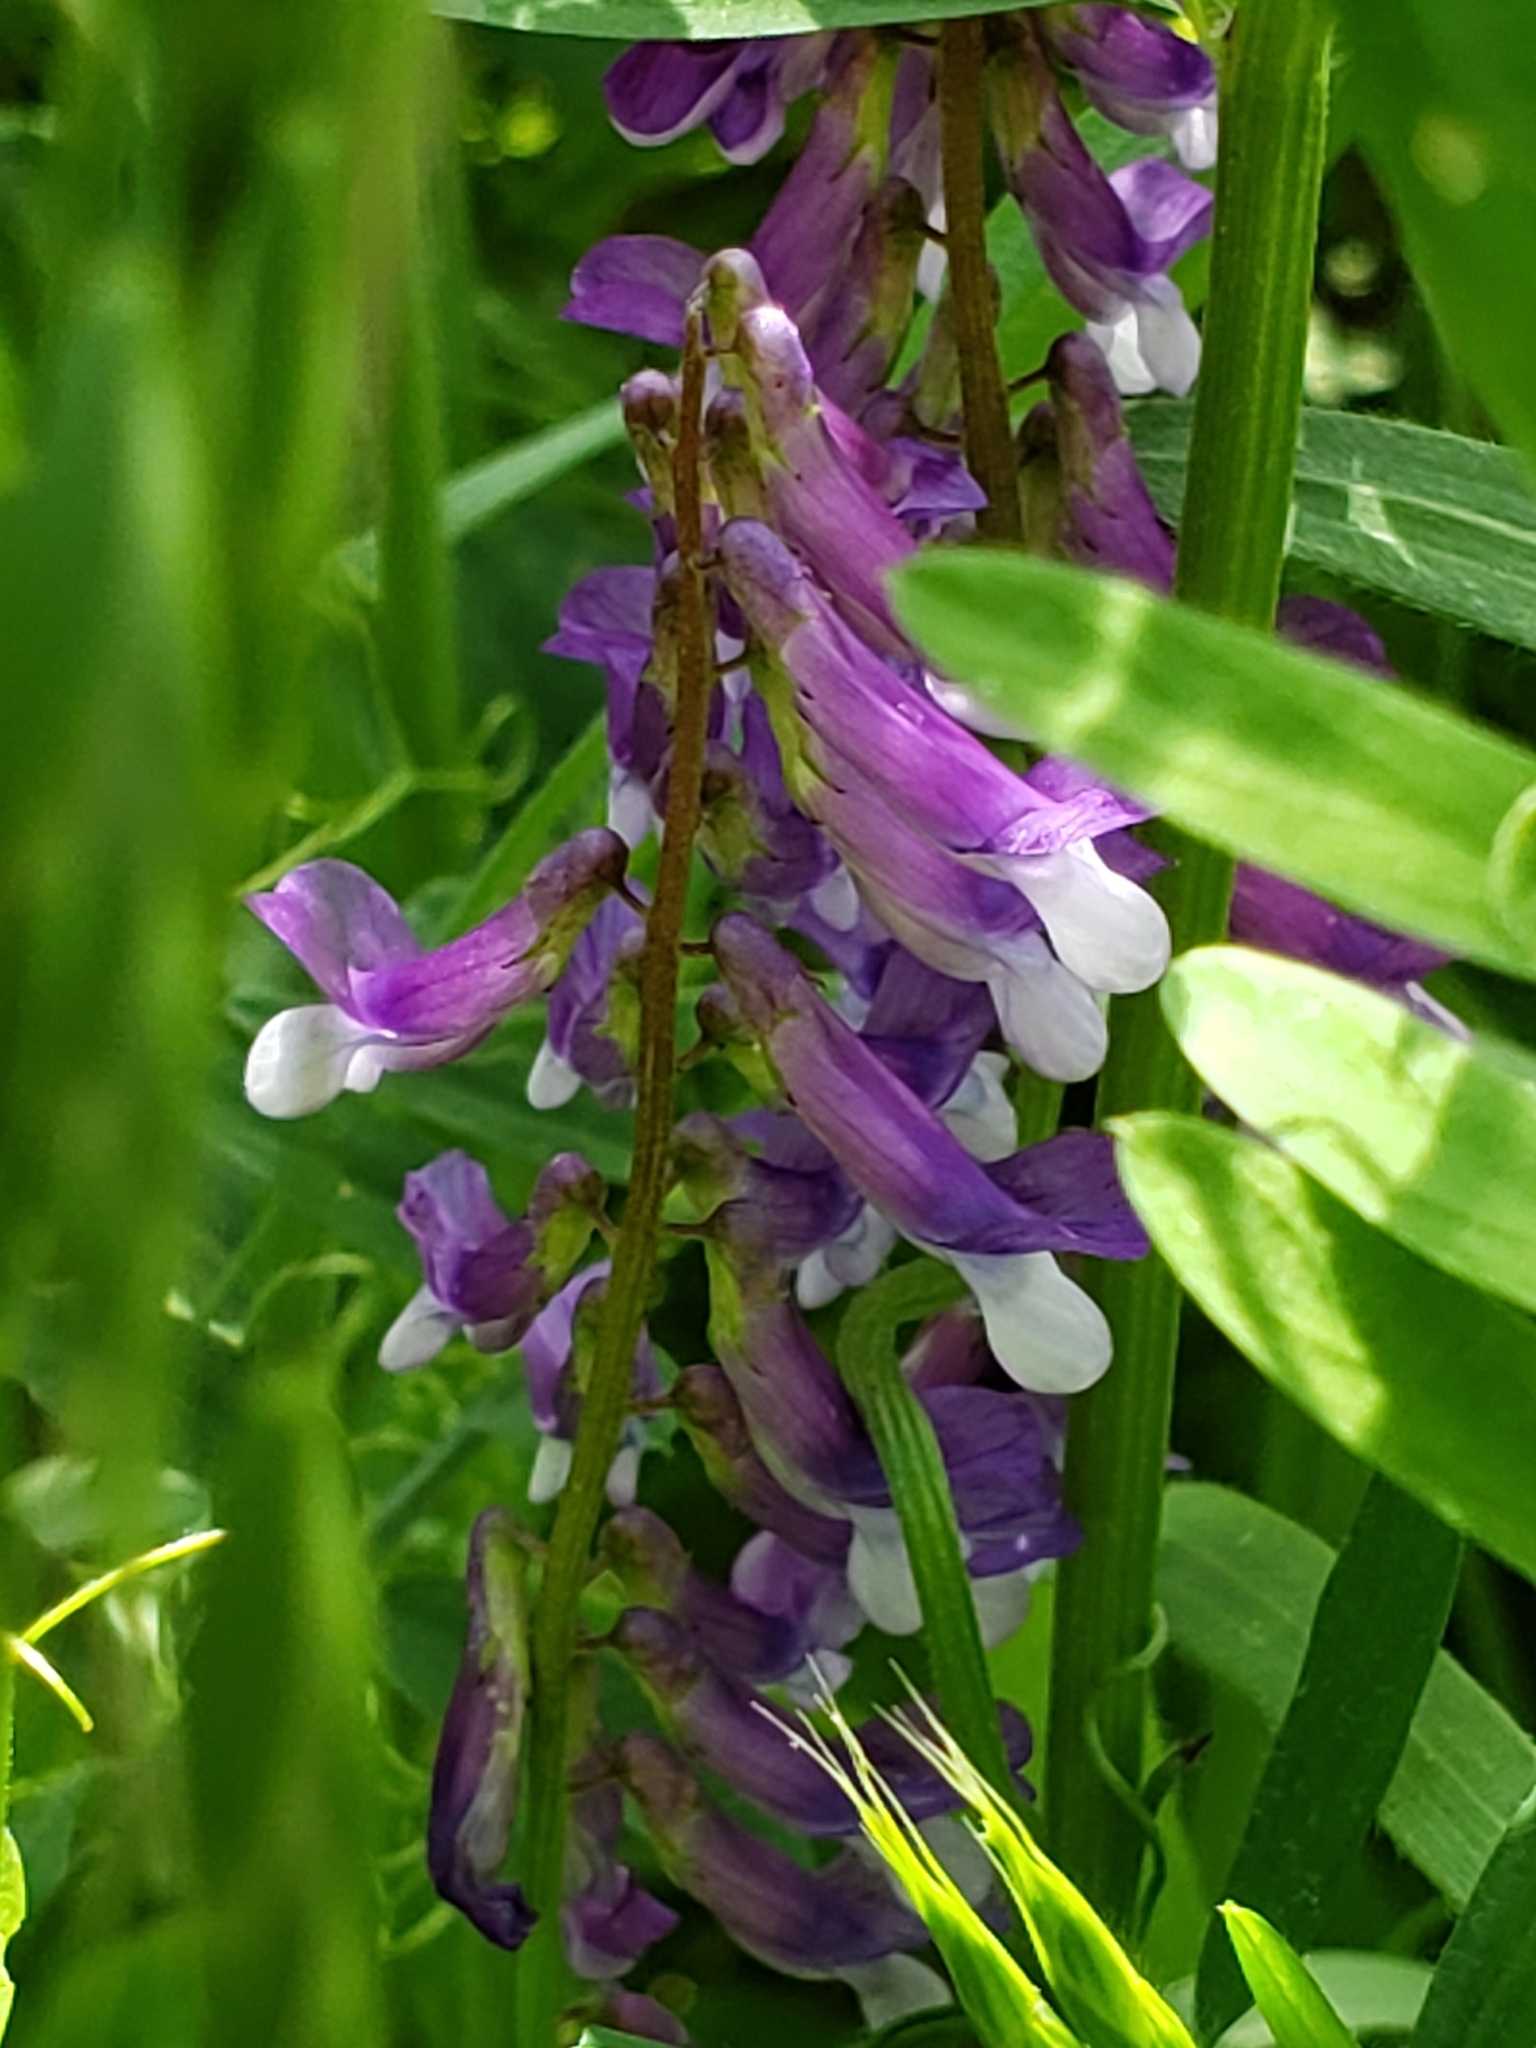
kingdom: Plantae
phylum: Tracheophyta
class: Magnoliopsida
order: Fabales
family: Fabaceae
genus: Vicia
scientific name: Vicia villosa
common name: Fodder vetch
